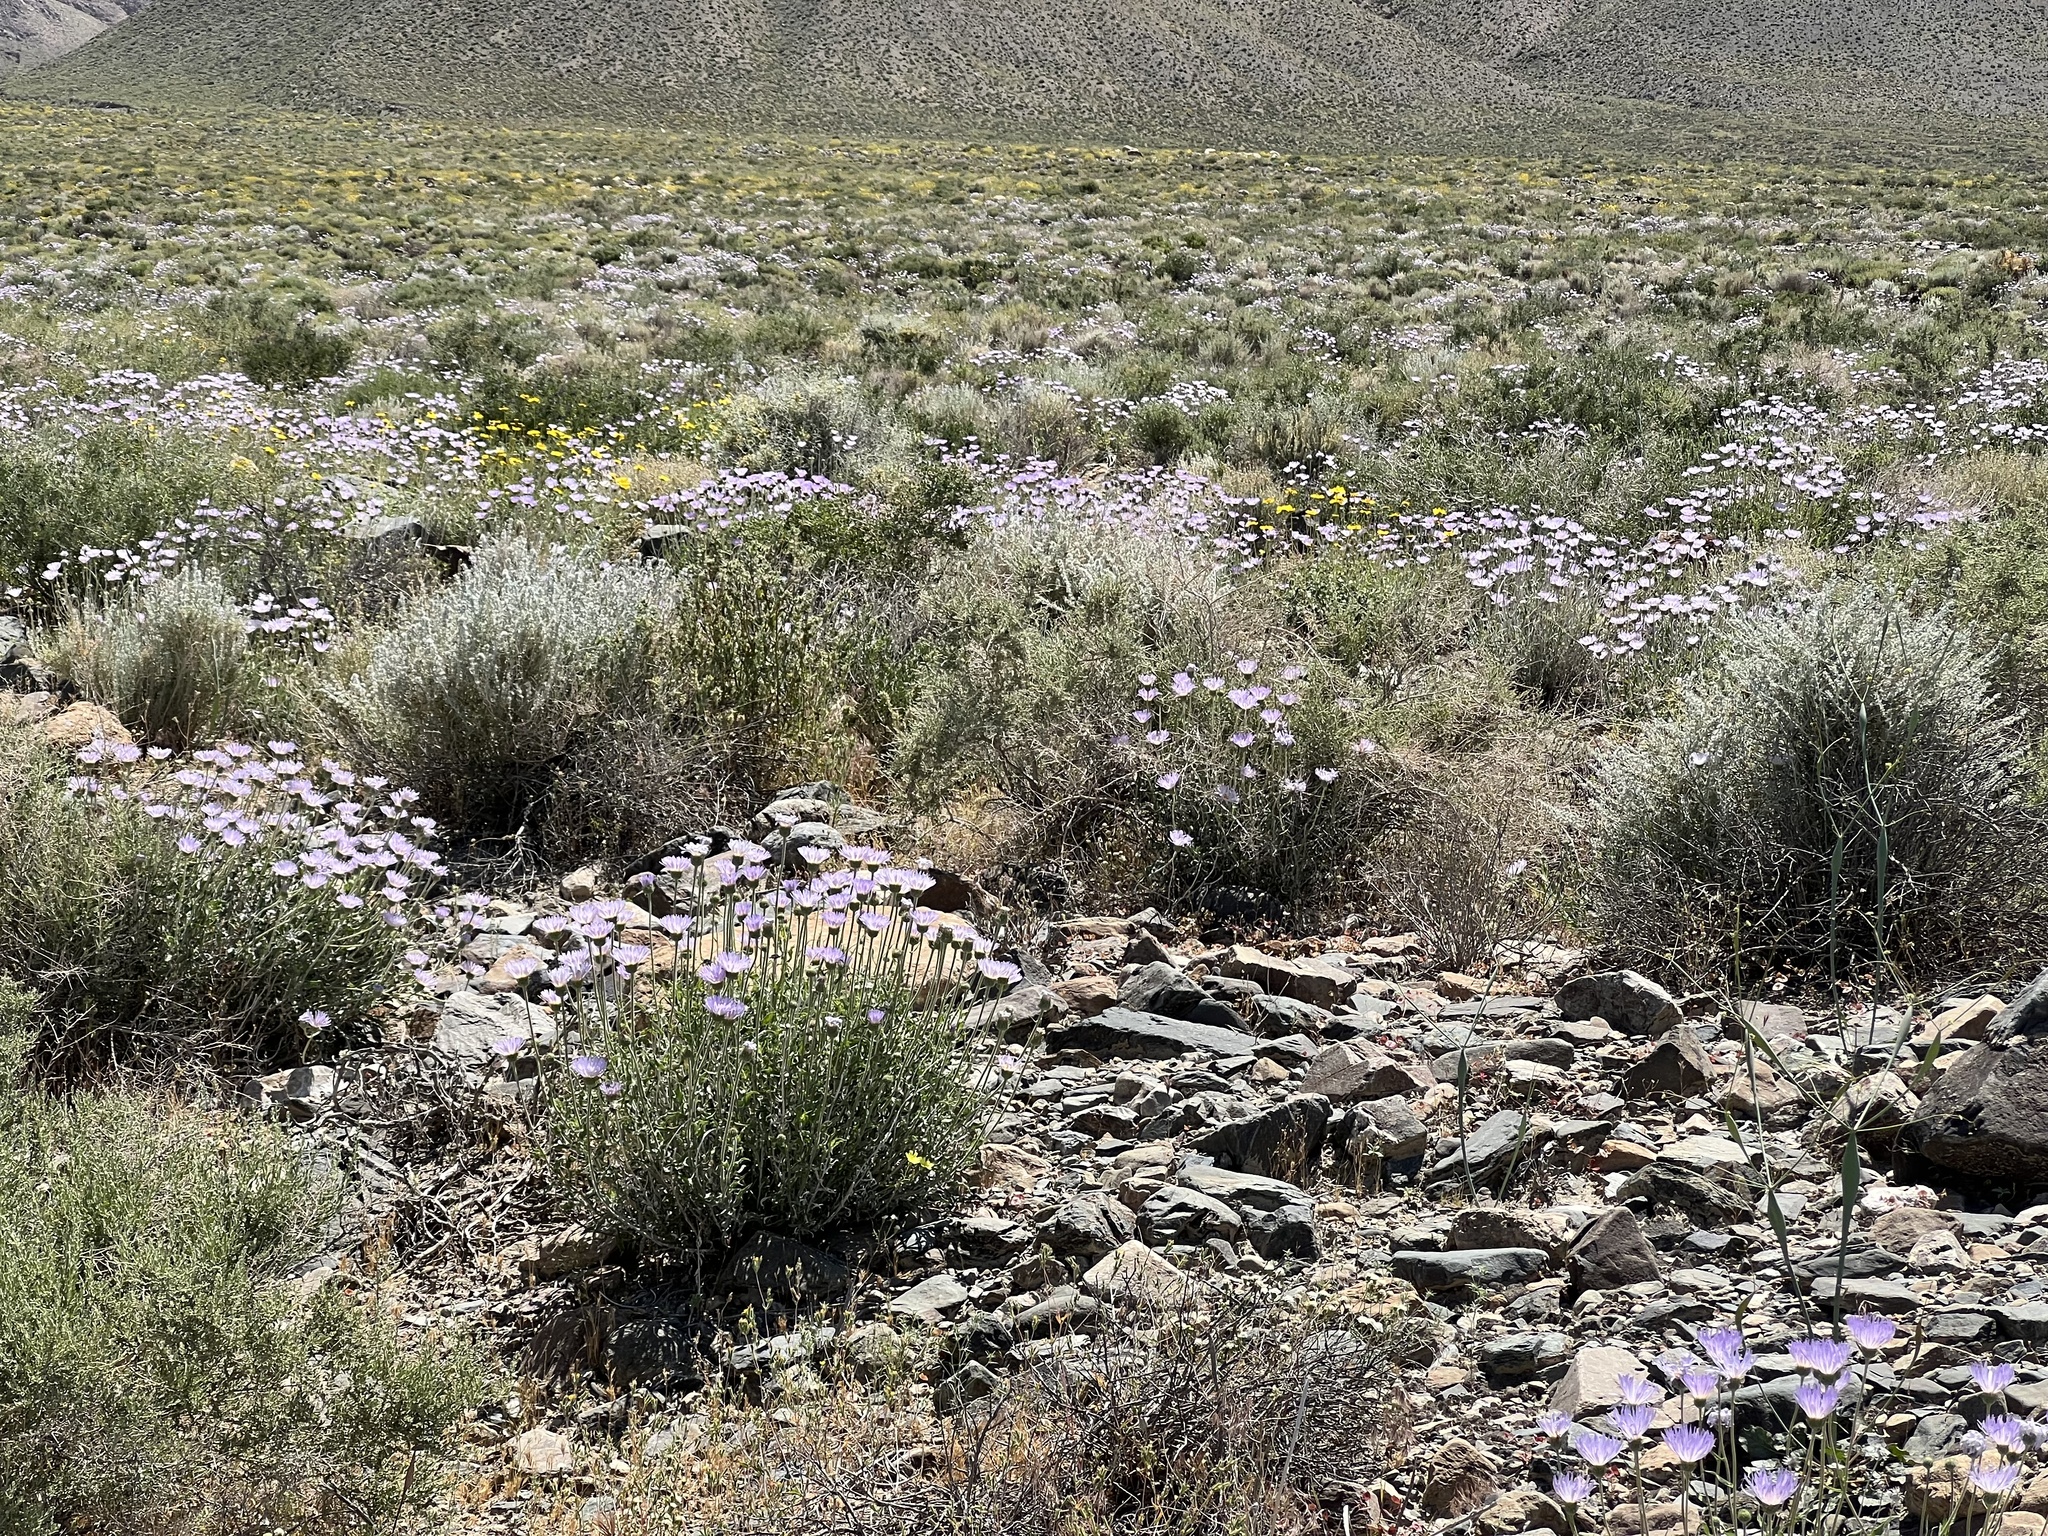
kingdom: Plantae
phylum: Tracheophyta
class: Magnoliopsida
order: Asterales
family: Asteraceae
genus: Xylorhiza
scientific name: Xylorhiza tortifolia
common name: Hurt-leaf woody-aster
